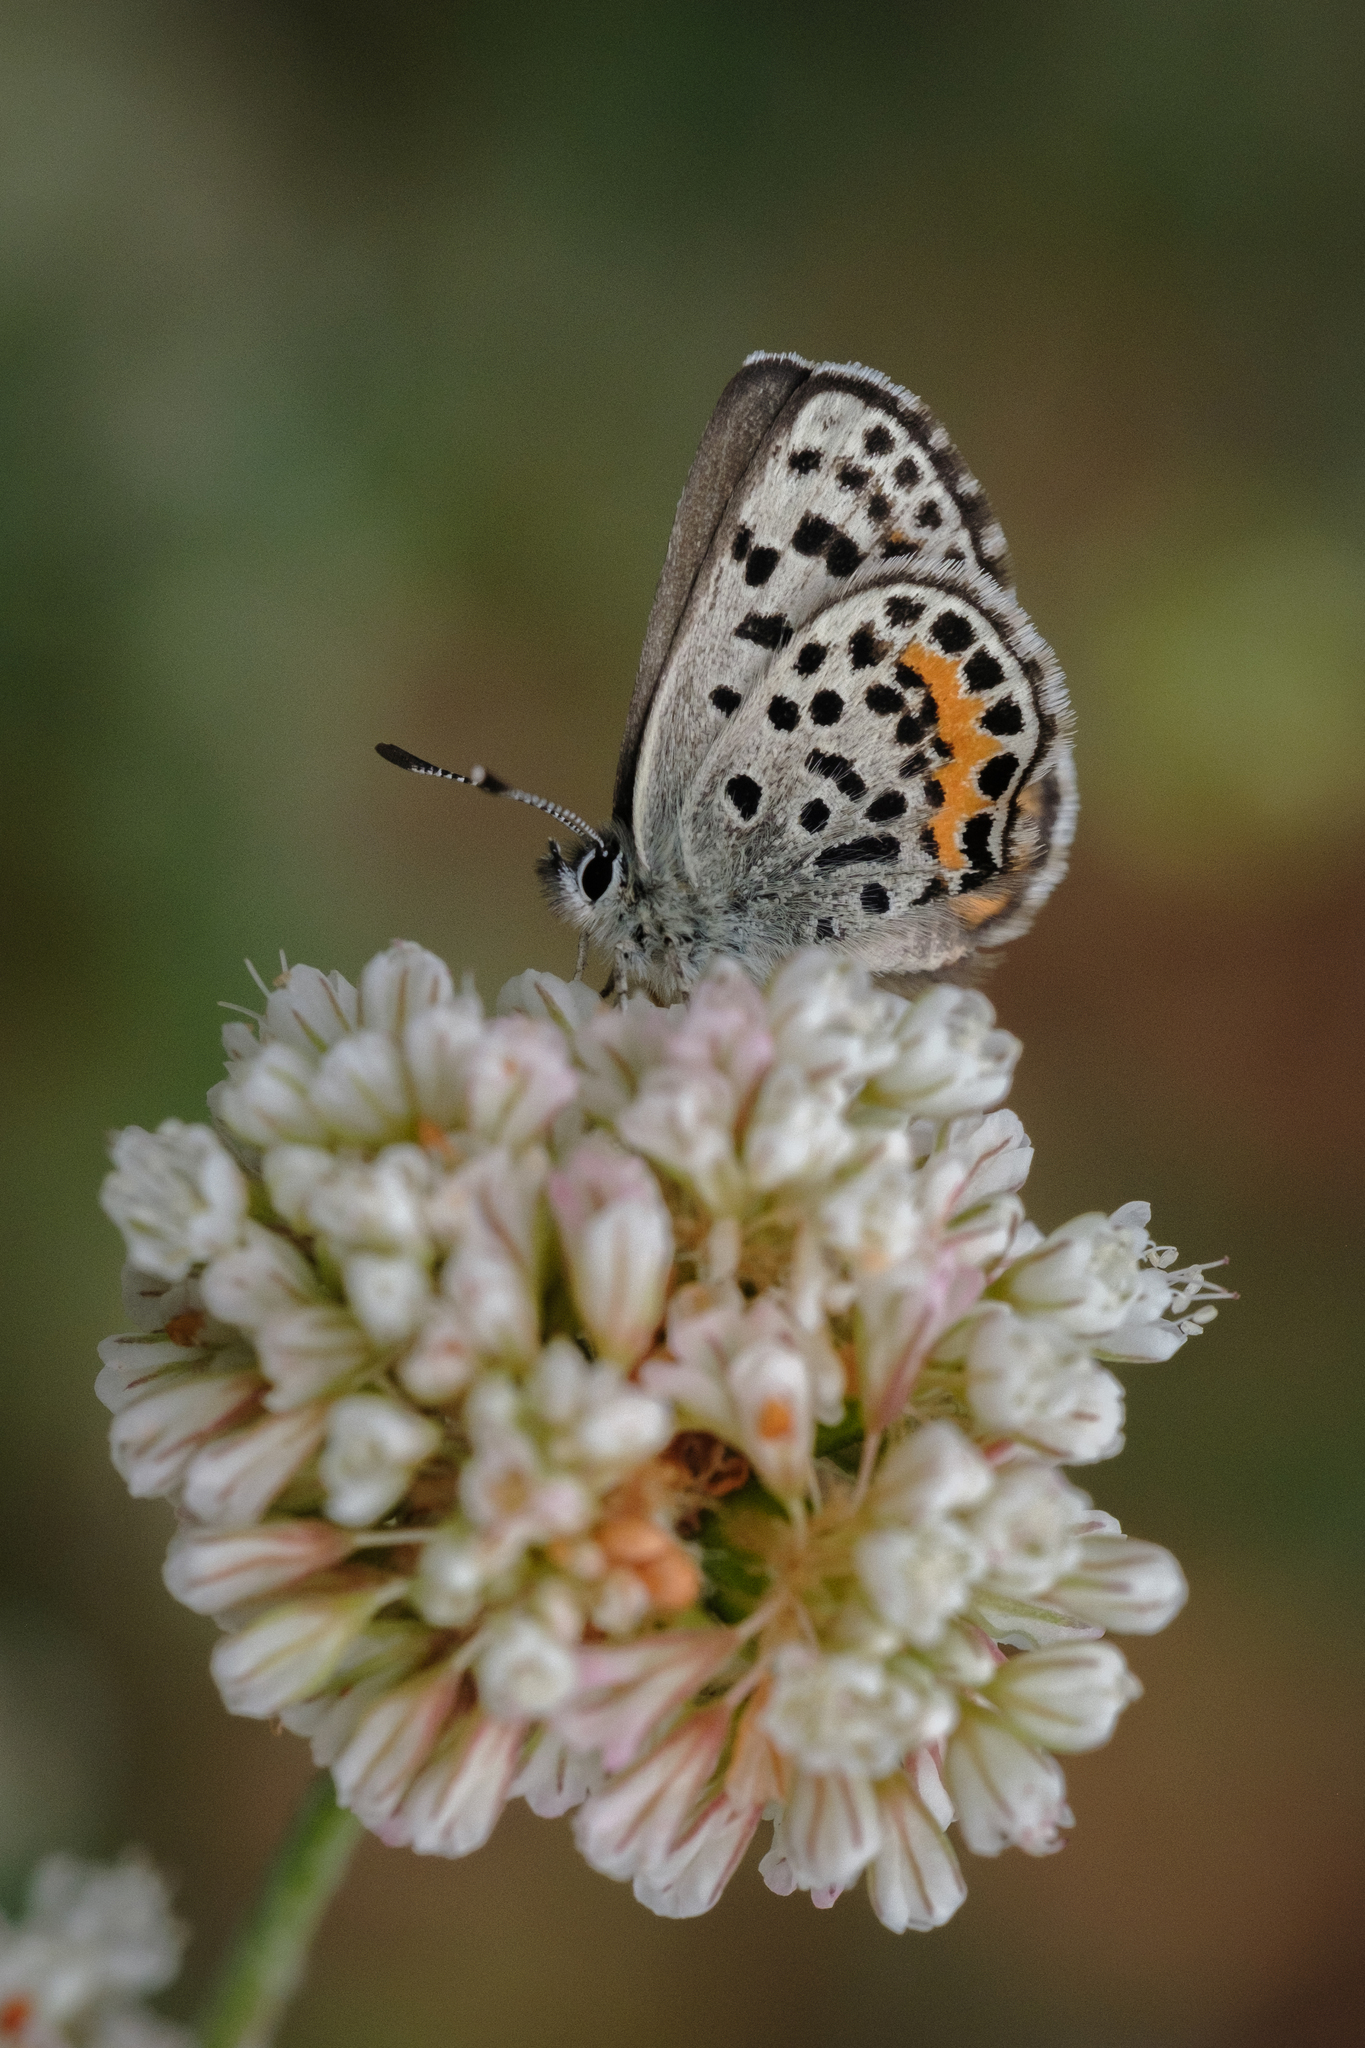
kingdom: Animalia
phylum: Arthropoda
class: Insecta
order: Lepidoptera
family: Lycaenidae
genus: Euphilotes
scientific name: Euphilotes battoides
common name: Square-spotted blue
